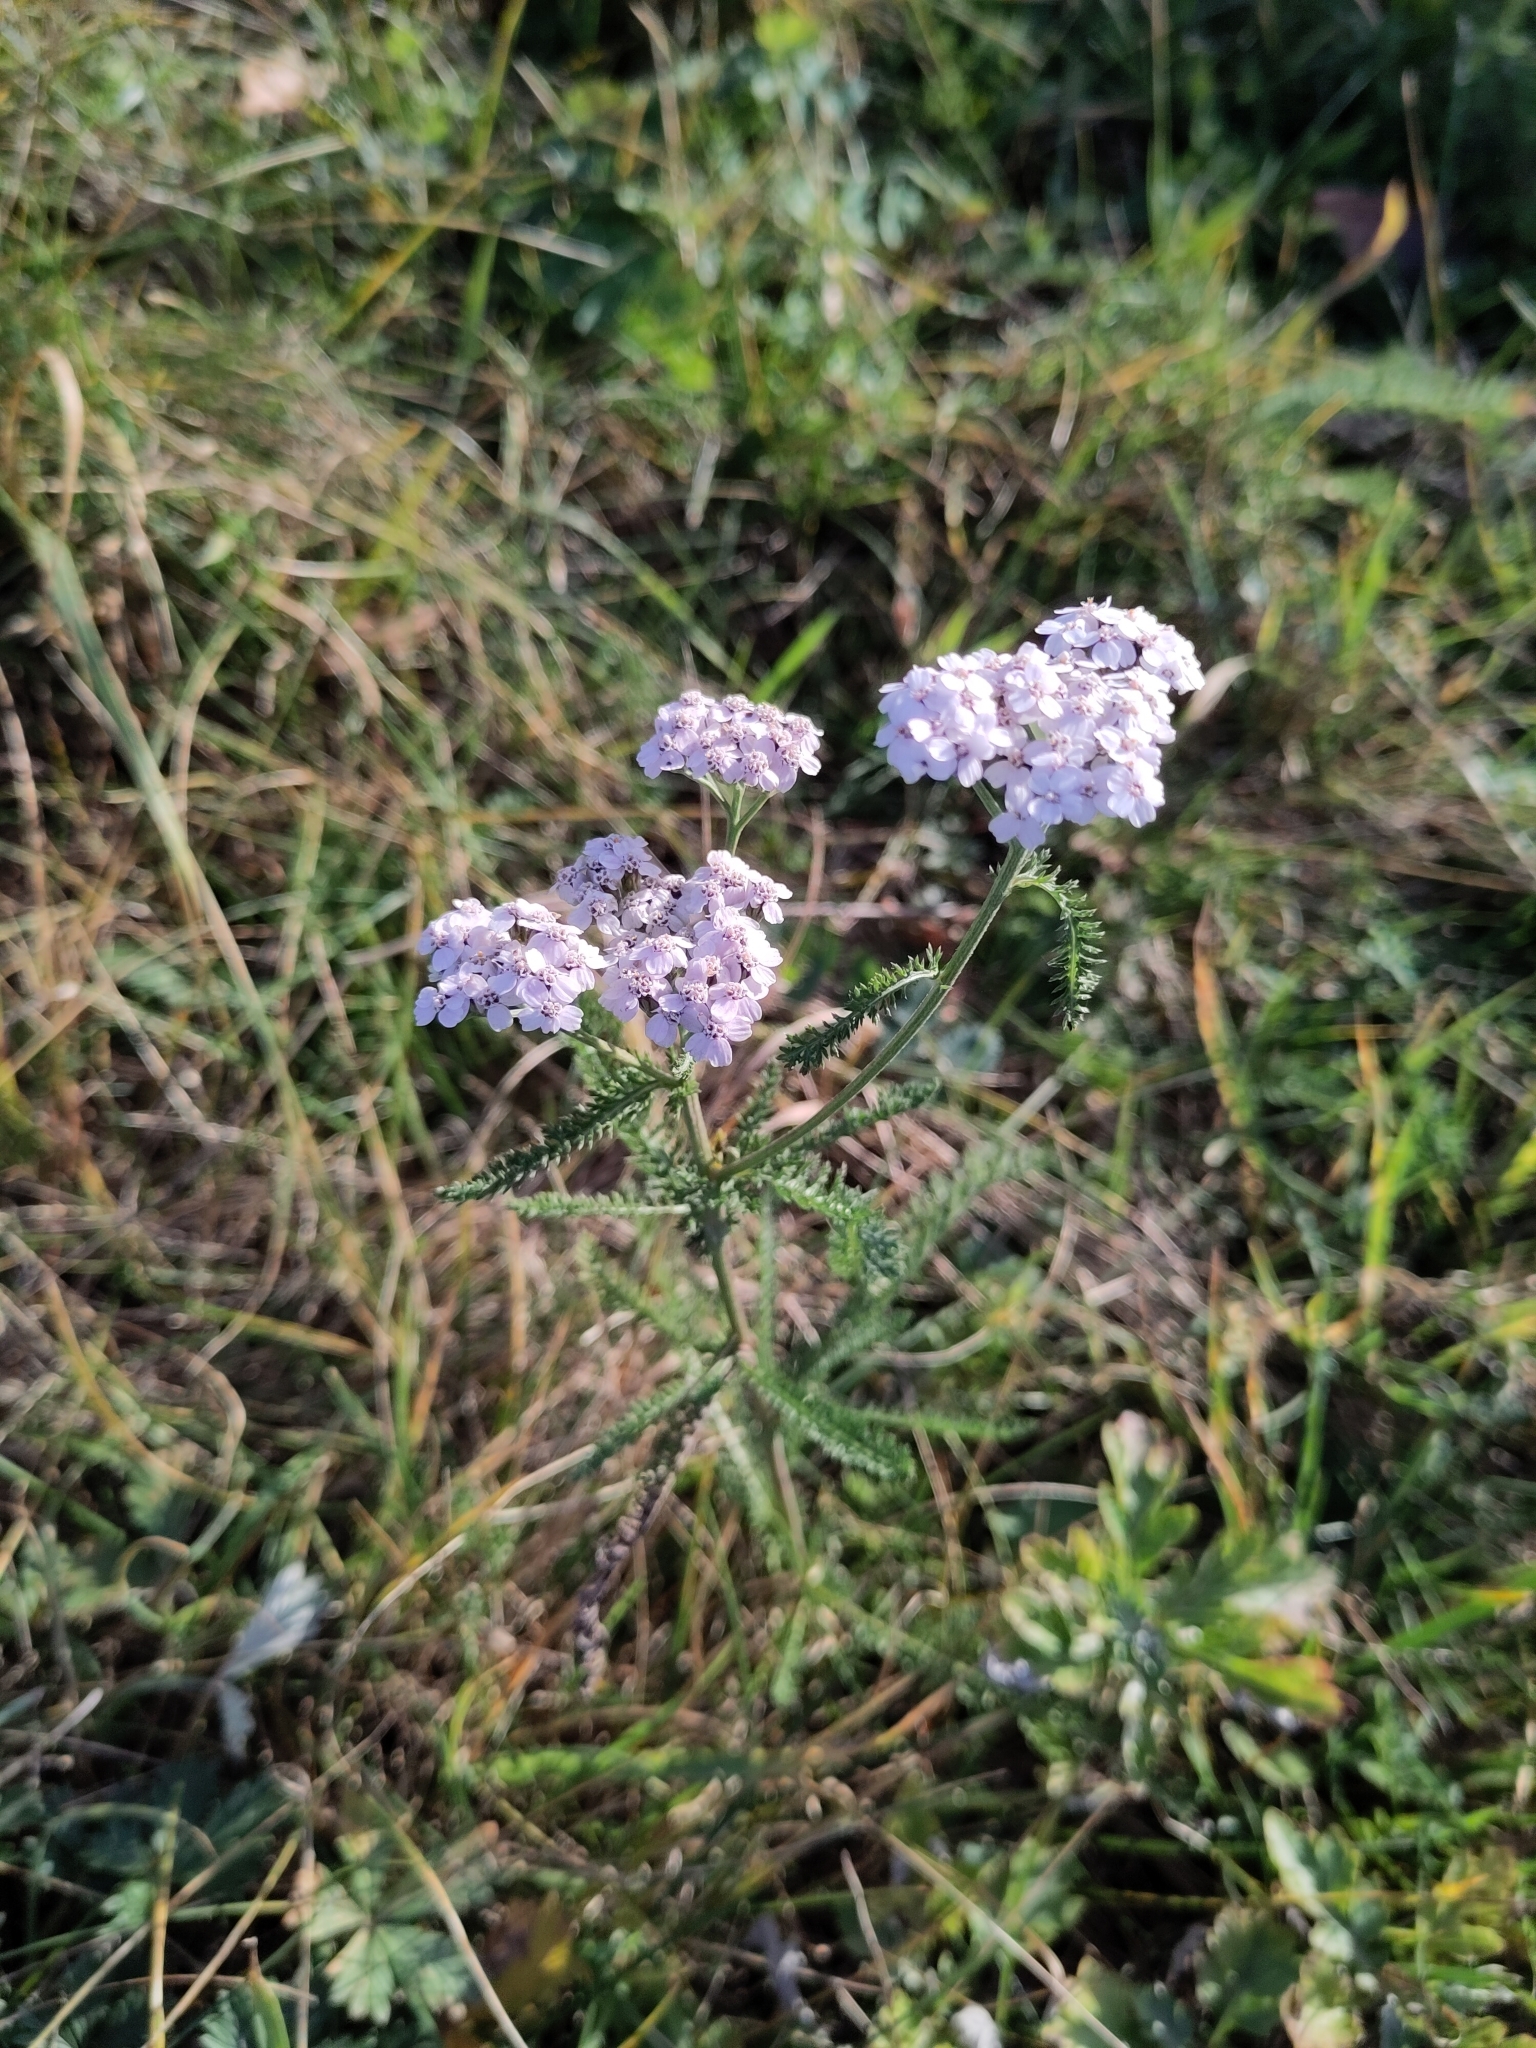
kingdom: Plantae
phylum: Tracheophyta
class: Magnoliopsida
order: Asterales
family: Asteraceae
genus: Achillea
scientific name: Achillea millefolium
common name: Yarrow
